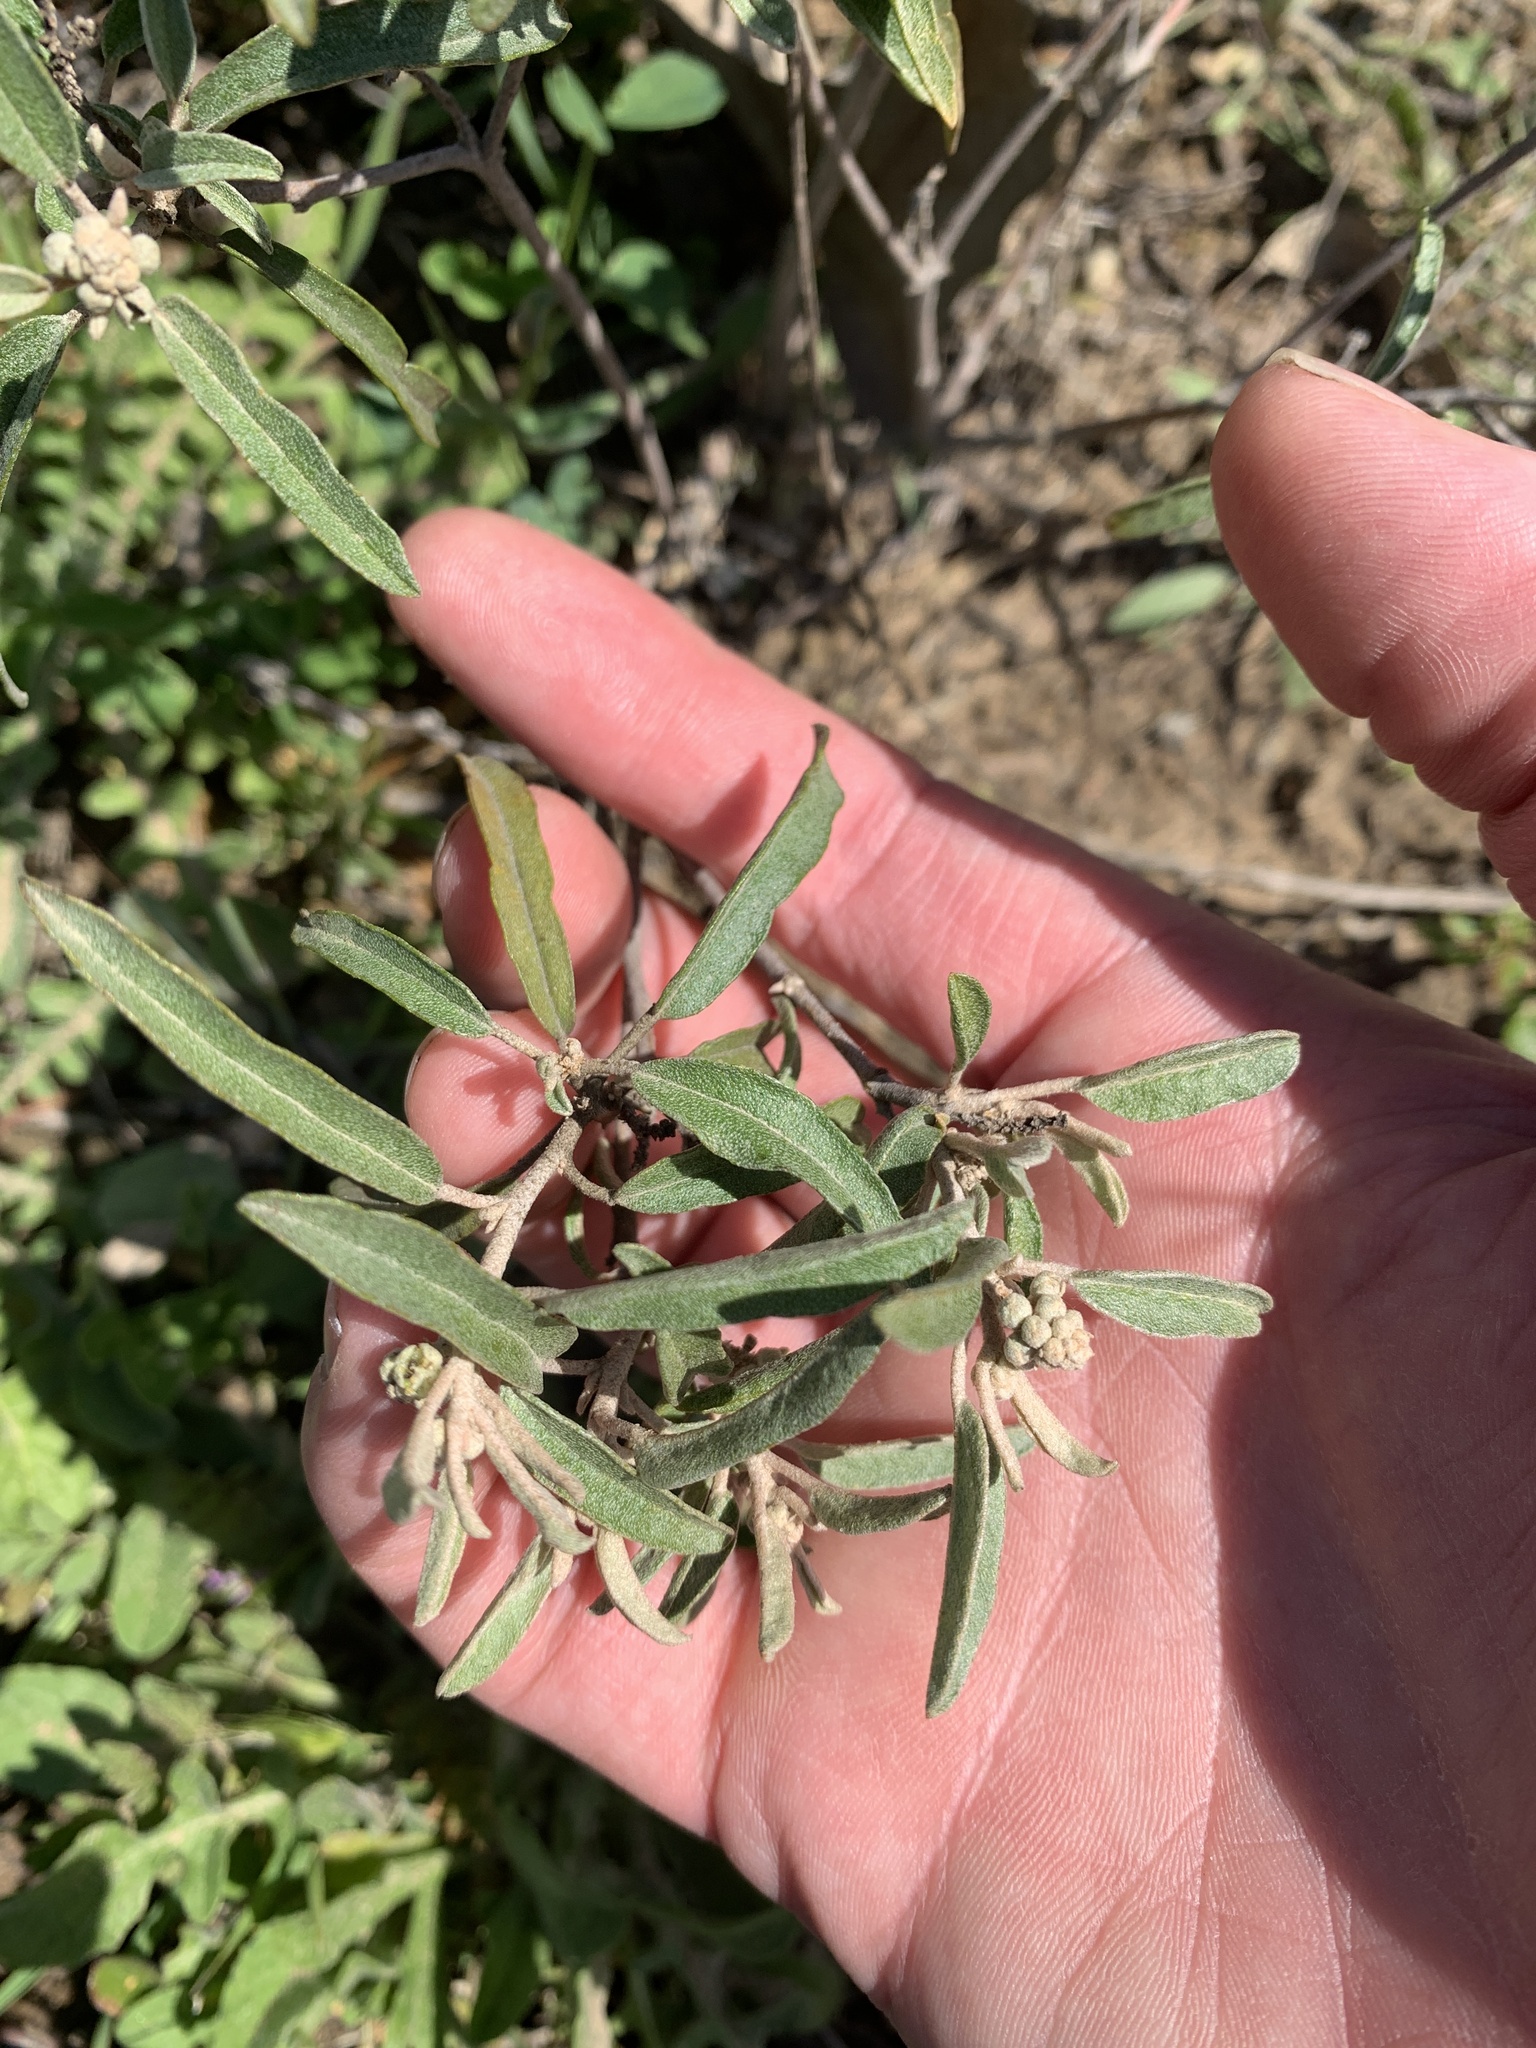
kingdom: Plantae
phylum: Tracheophyta
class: Magnoliopsida
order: Malpighiales
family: Euphorbiaceae
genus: Croton
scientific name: Croton californicus
